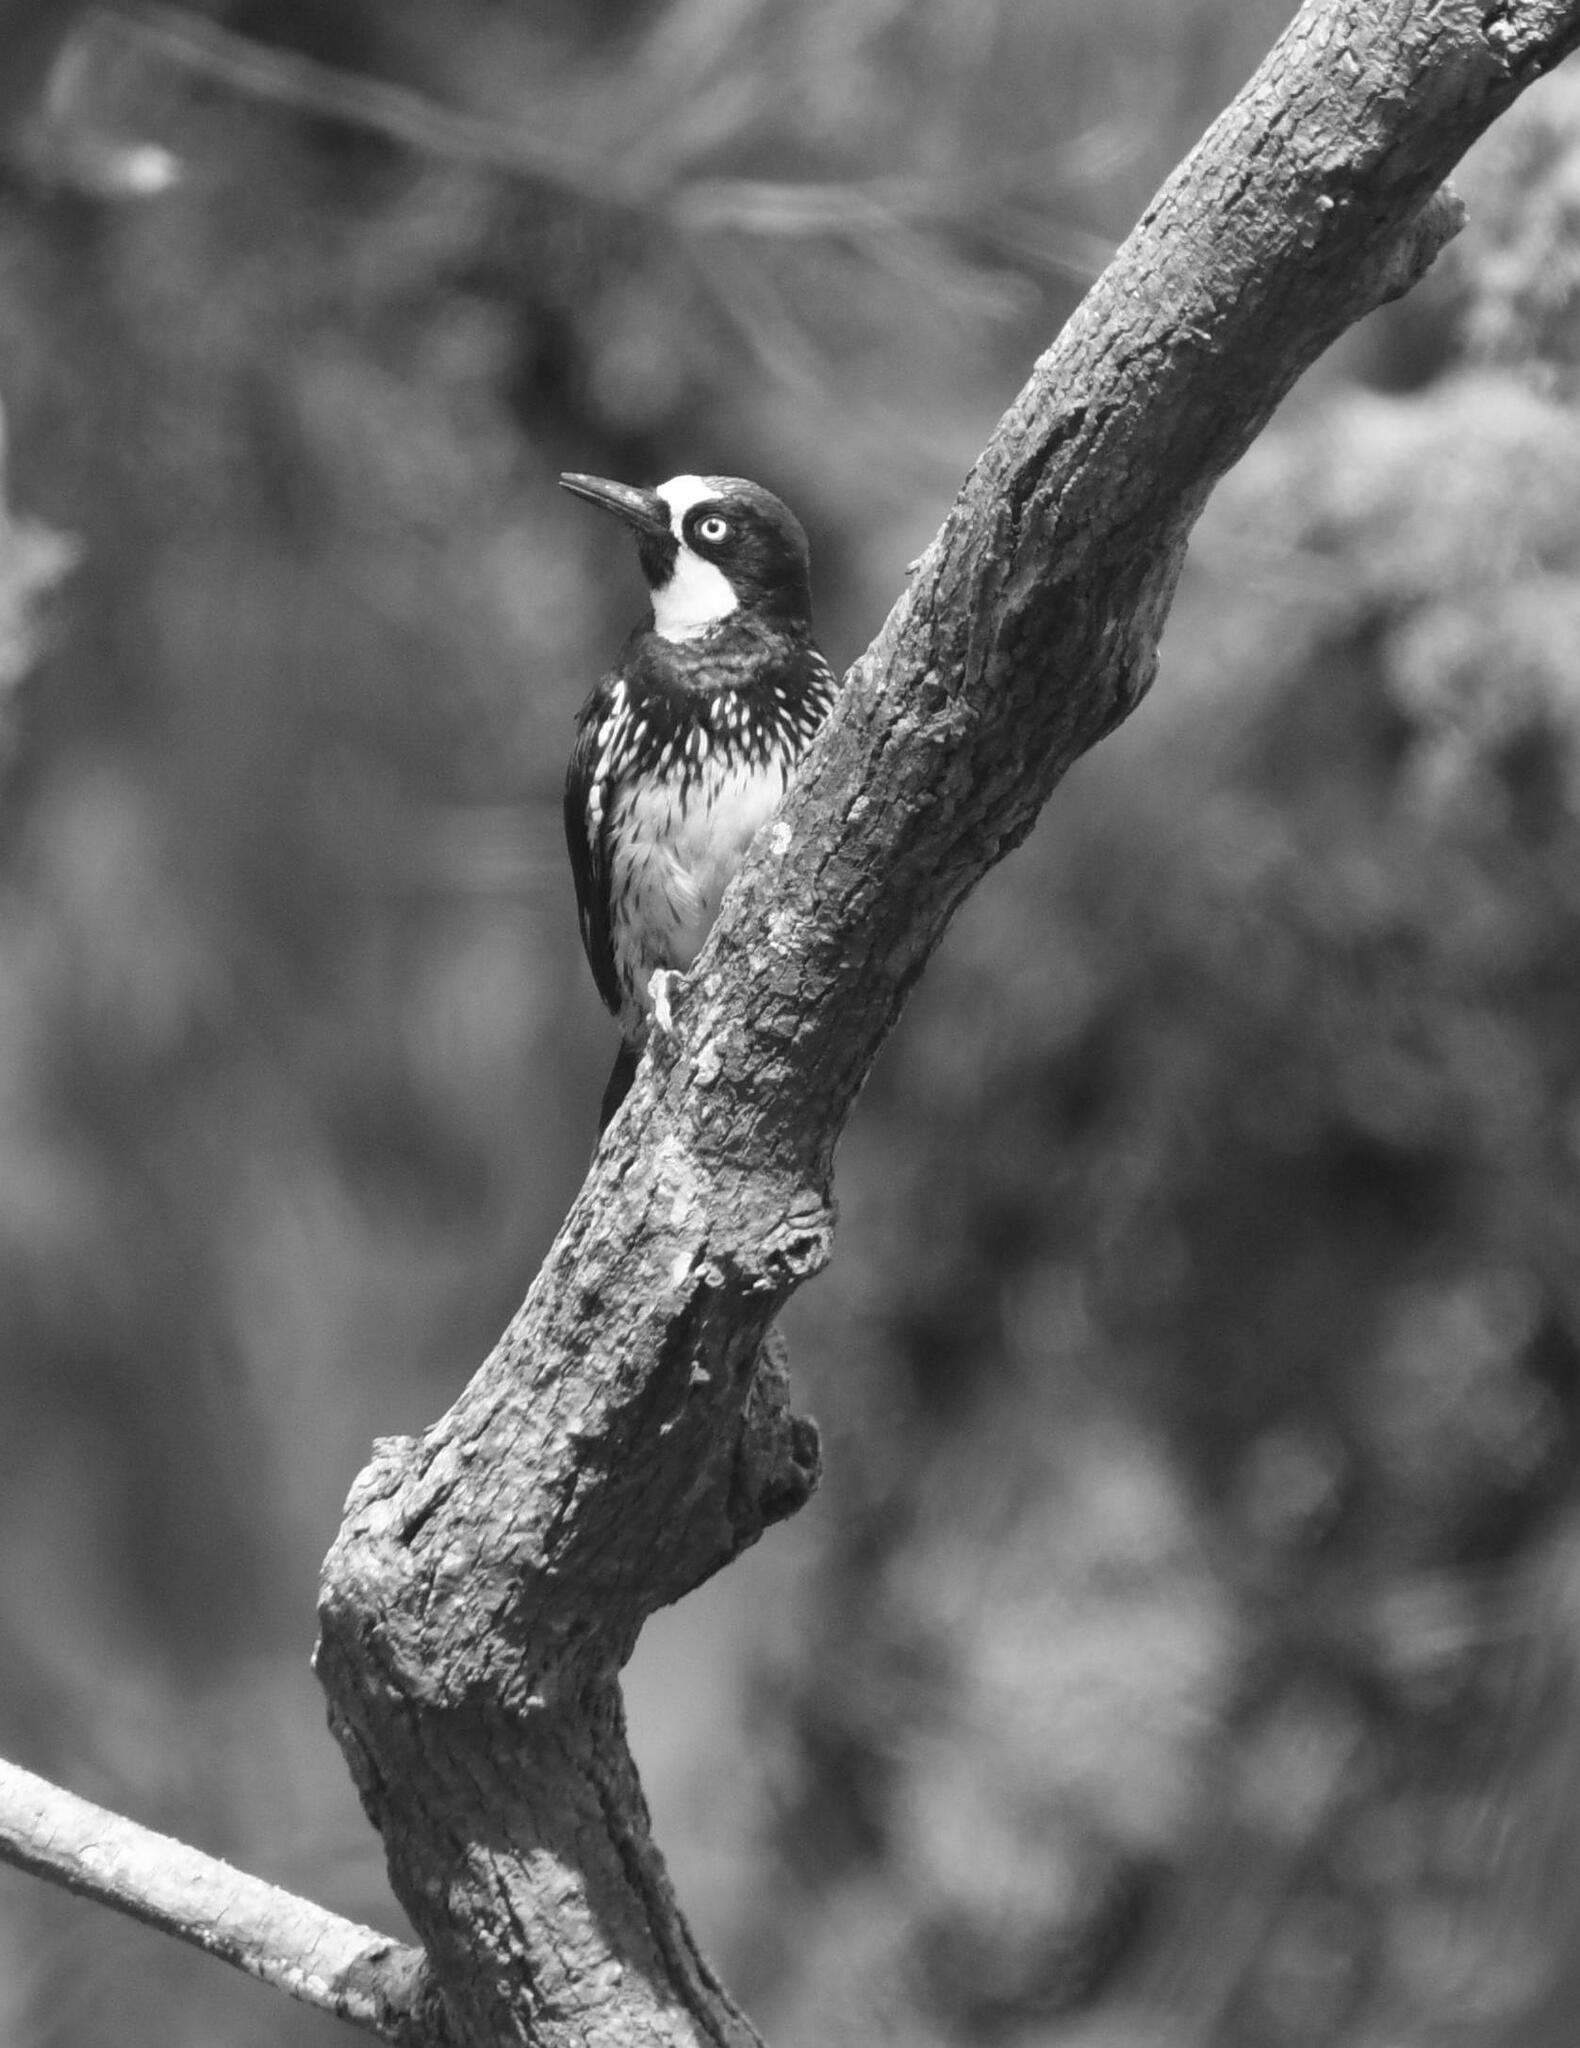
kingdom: Animalia
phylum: Chordata
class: Aves
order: Piciformes
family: Picidae
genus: Melanerpes
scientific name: Melanerpes formicivorus
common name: Acorn woodpecker
